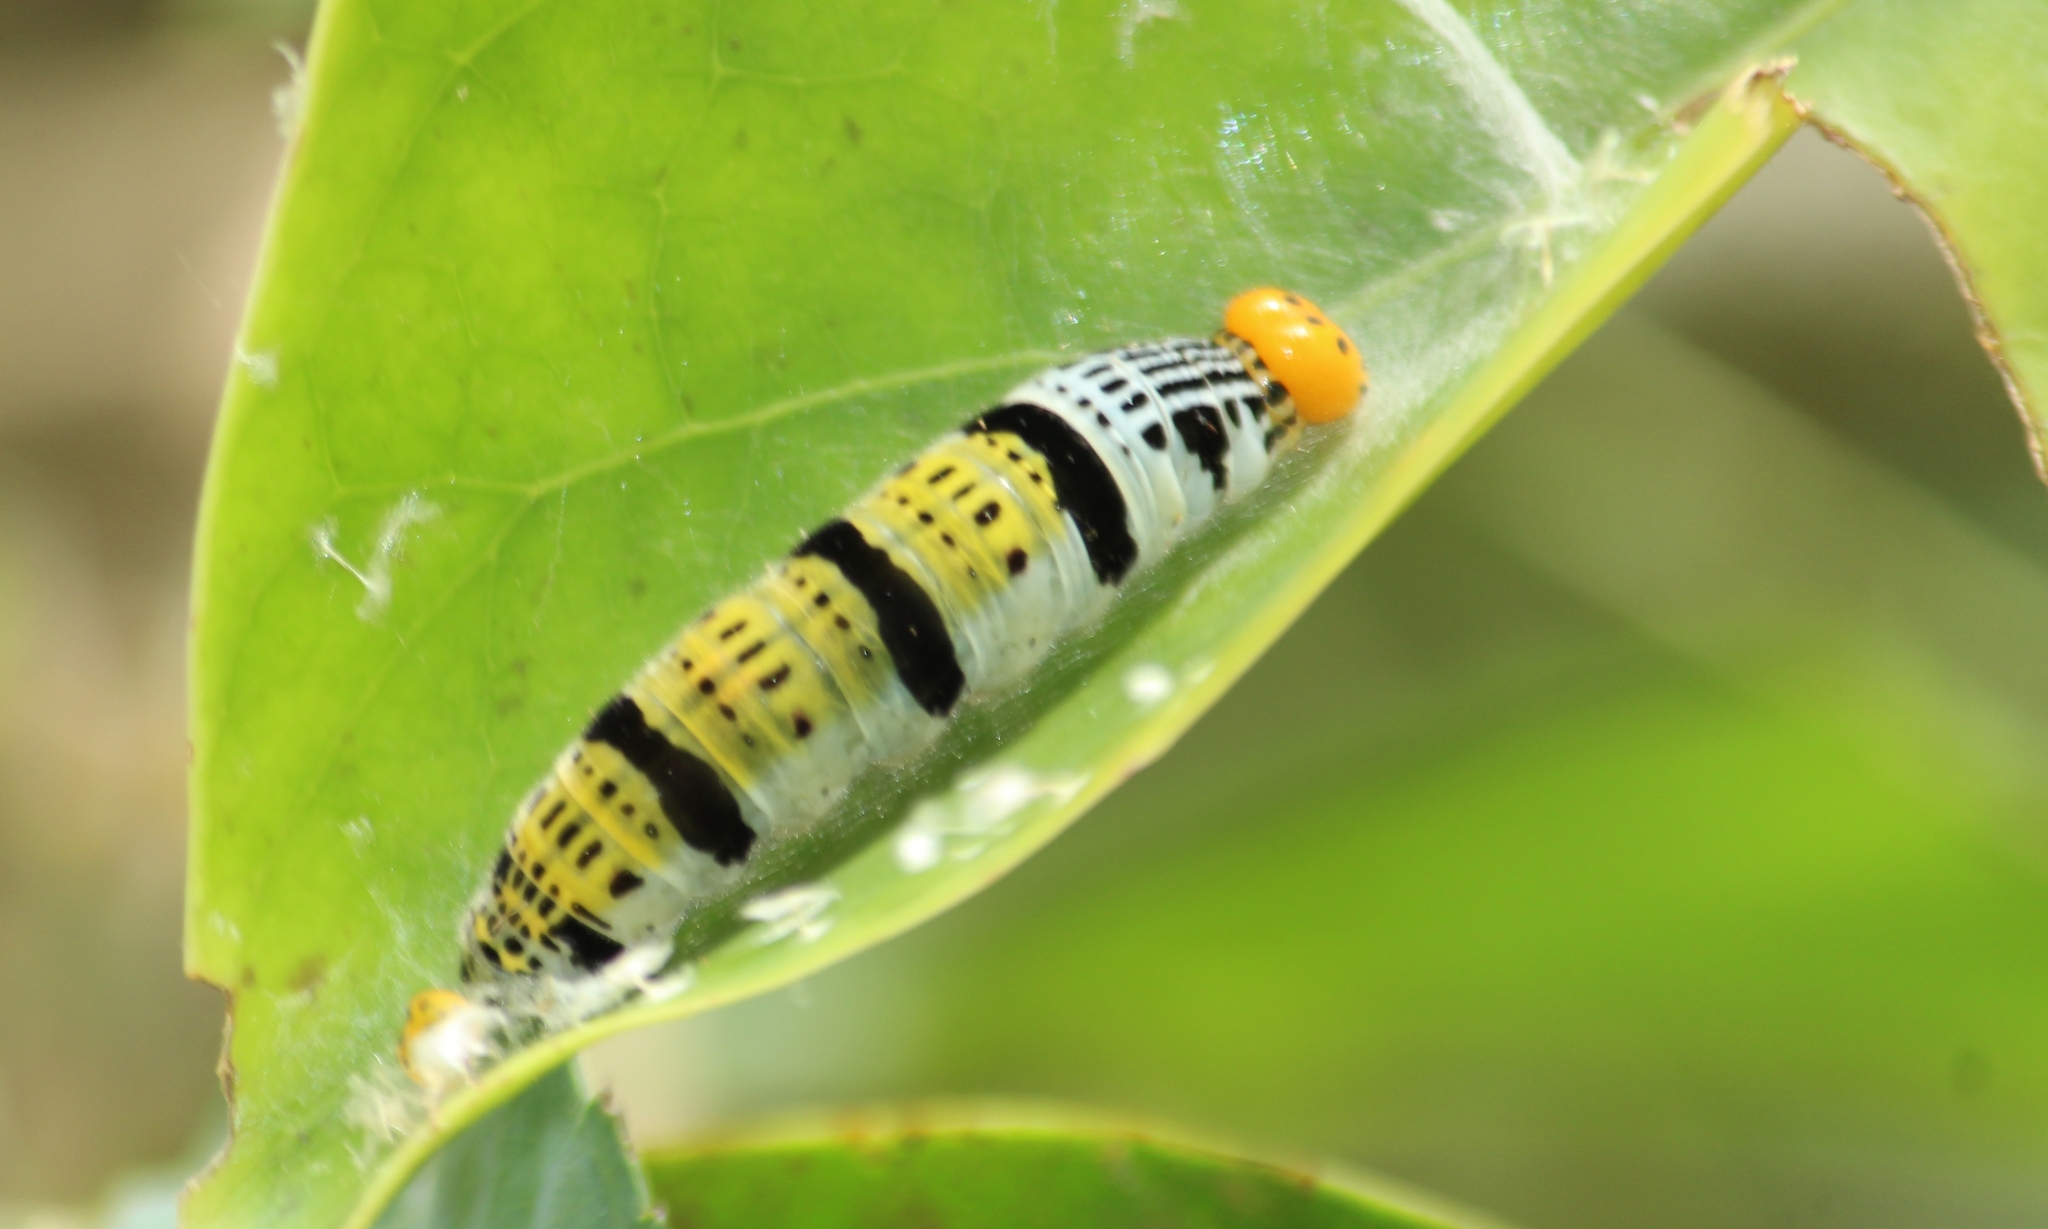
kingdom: Animalia
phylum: Arthropoda
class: Insecta
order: Lepidoptera
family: Hesperiidae
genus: Bibasis
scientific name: Bibasis gomata
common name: Pale green awlet
